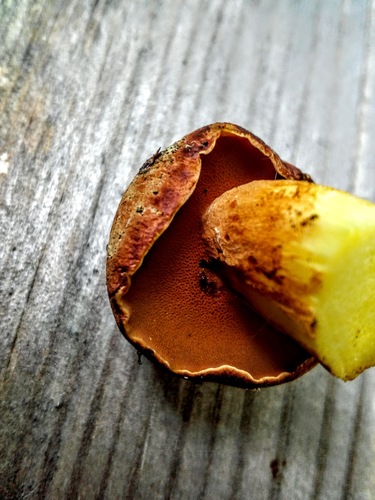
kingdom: Fungi
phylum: Basidiomycota
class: Agaricomycetes
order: Boletales
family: Boletaceae
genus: Chalciporus
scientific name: Chalciporus piperatus
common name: Peppery bolete
